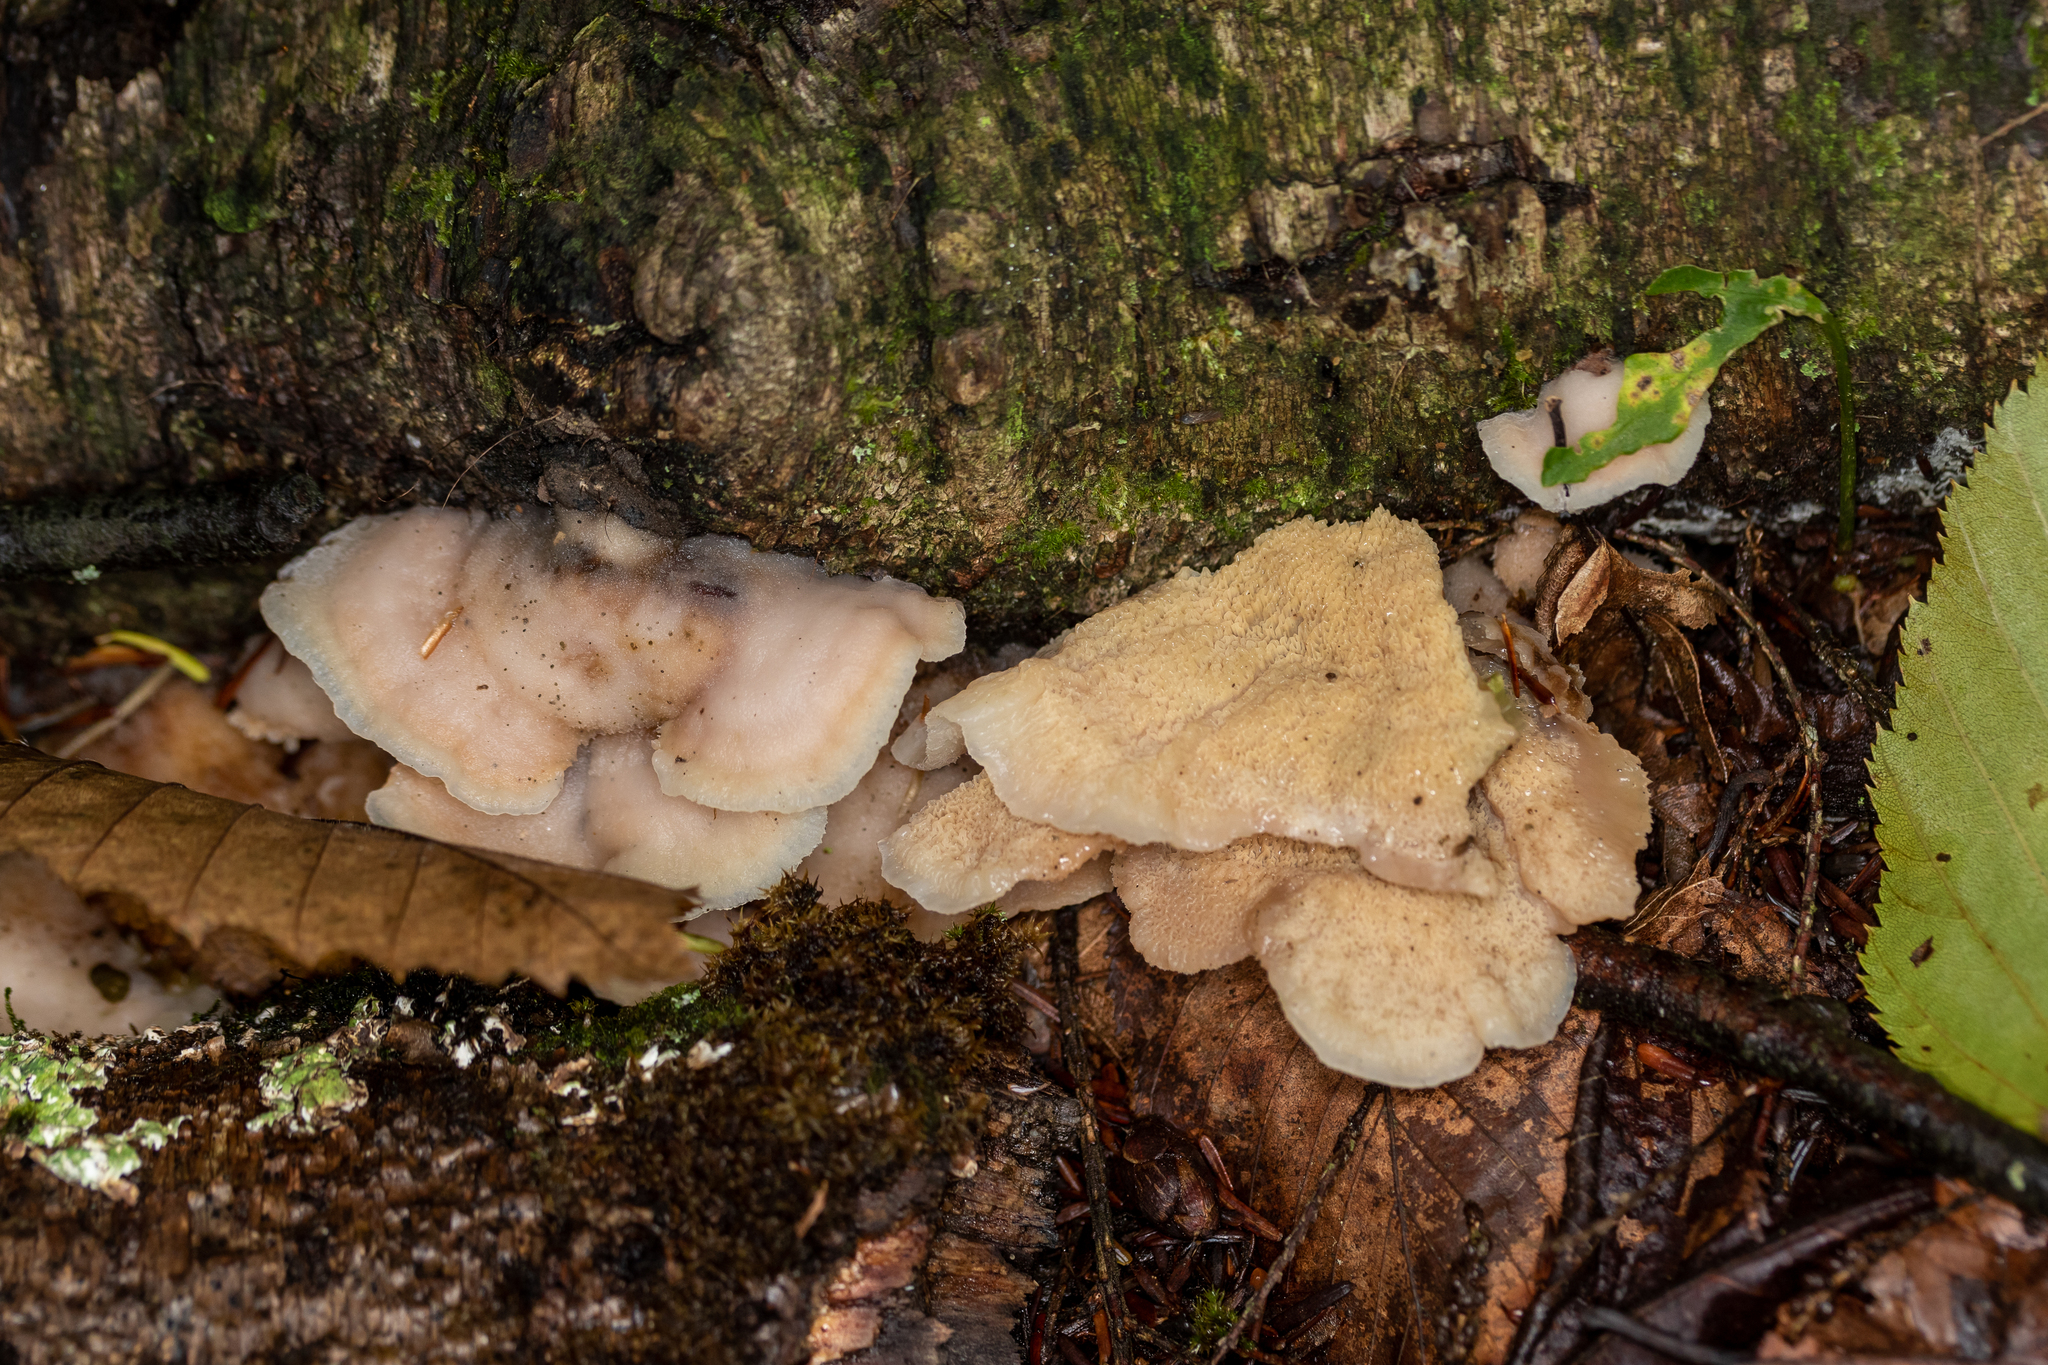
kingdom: Fungi
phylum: Basidiomycota
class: Agaricomycetes
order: Polyporales
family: Meruliaceae
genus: Phlebia
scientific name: Phlebia tremellosa
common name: Jelly rot
